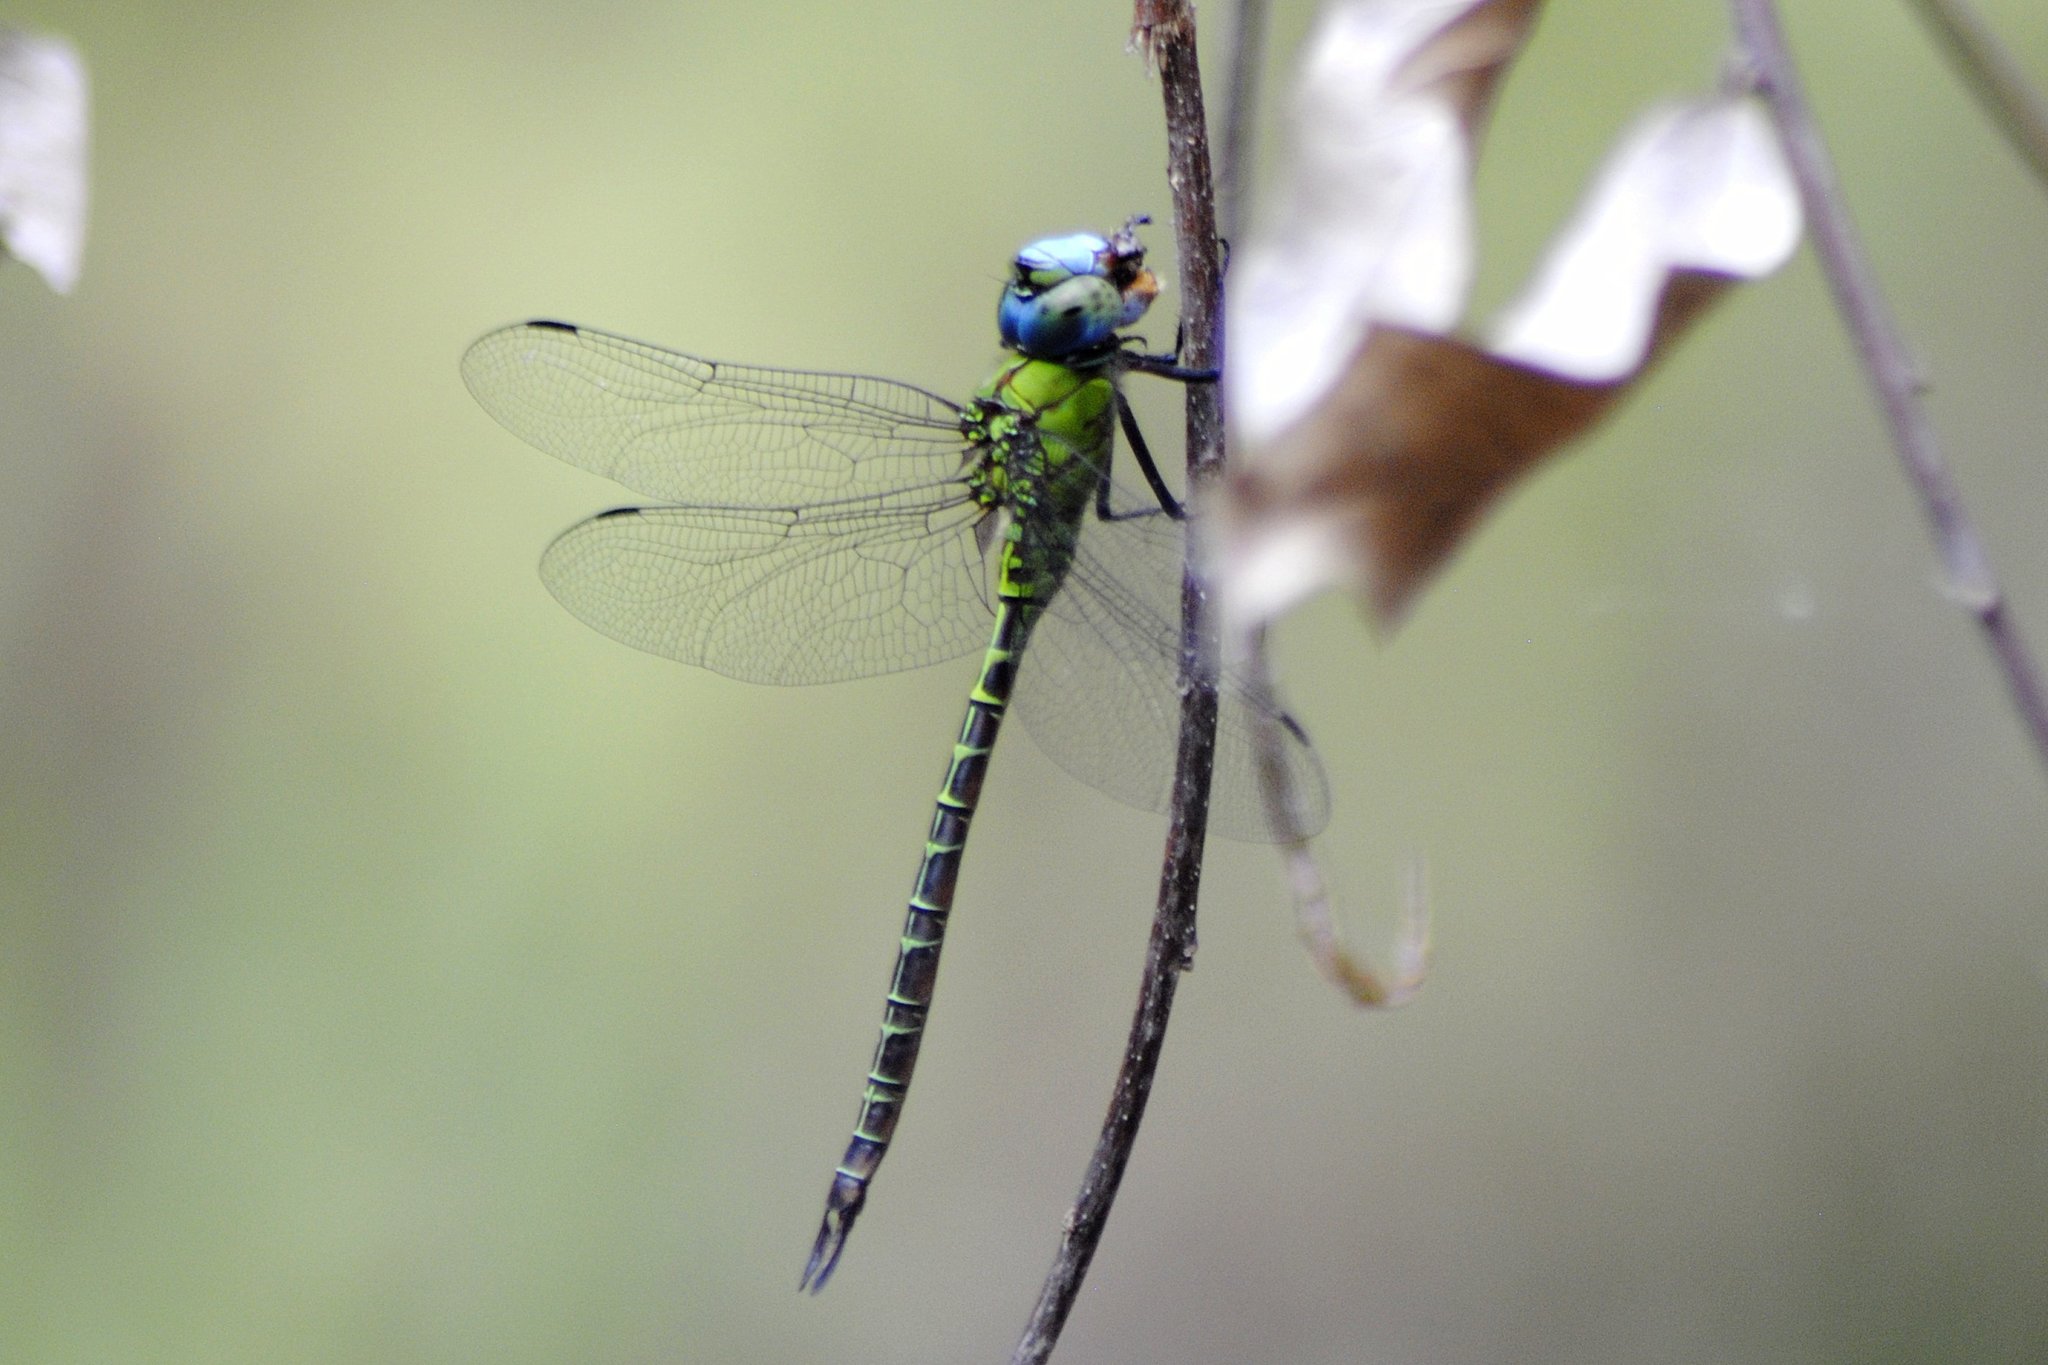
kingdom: Animalia
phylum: Arthropoda
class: Insecta
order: Odonata
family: Aeshnidae
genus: Coryphaeschna
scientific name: Coryphaeschna adnexa
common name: Blue-faced darner
